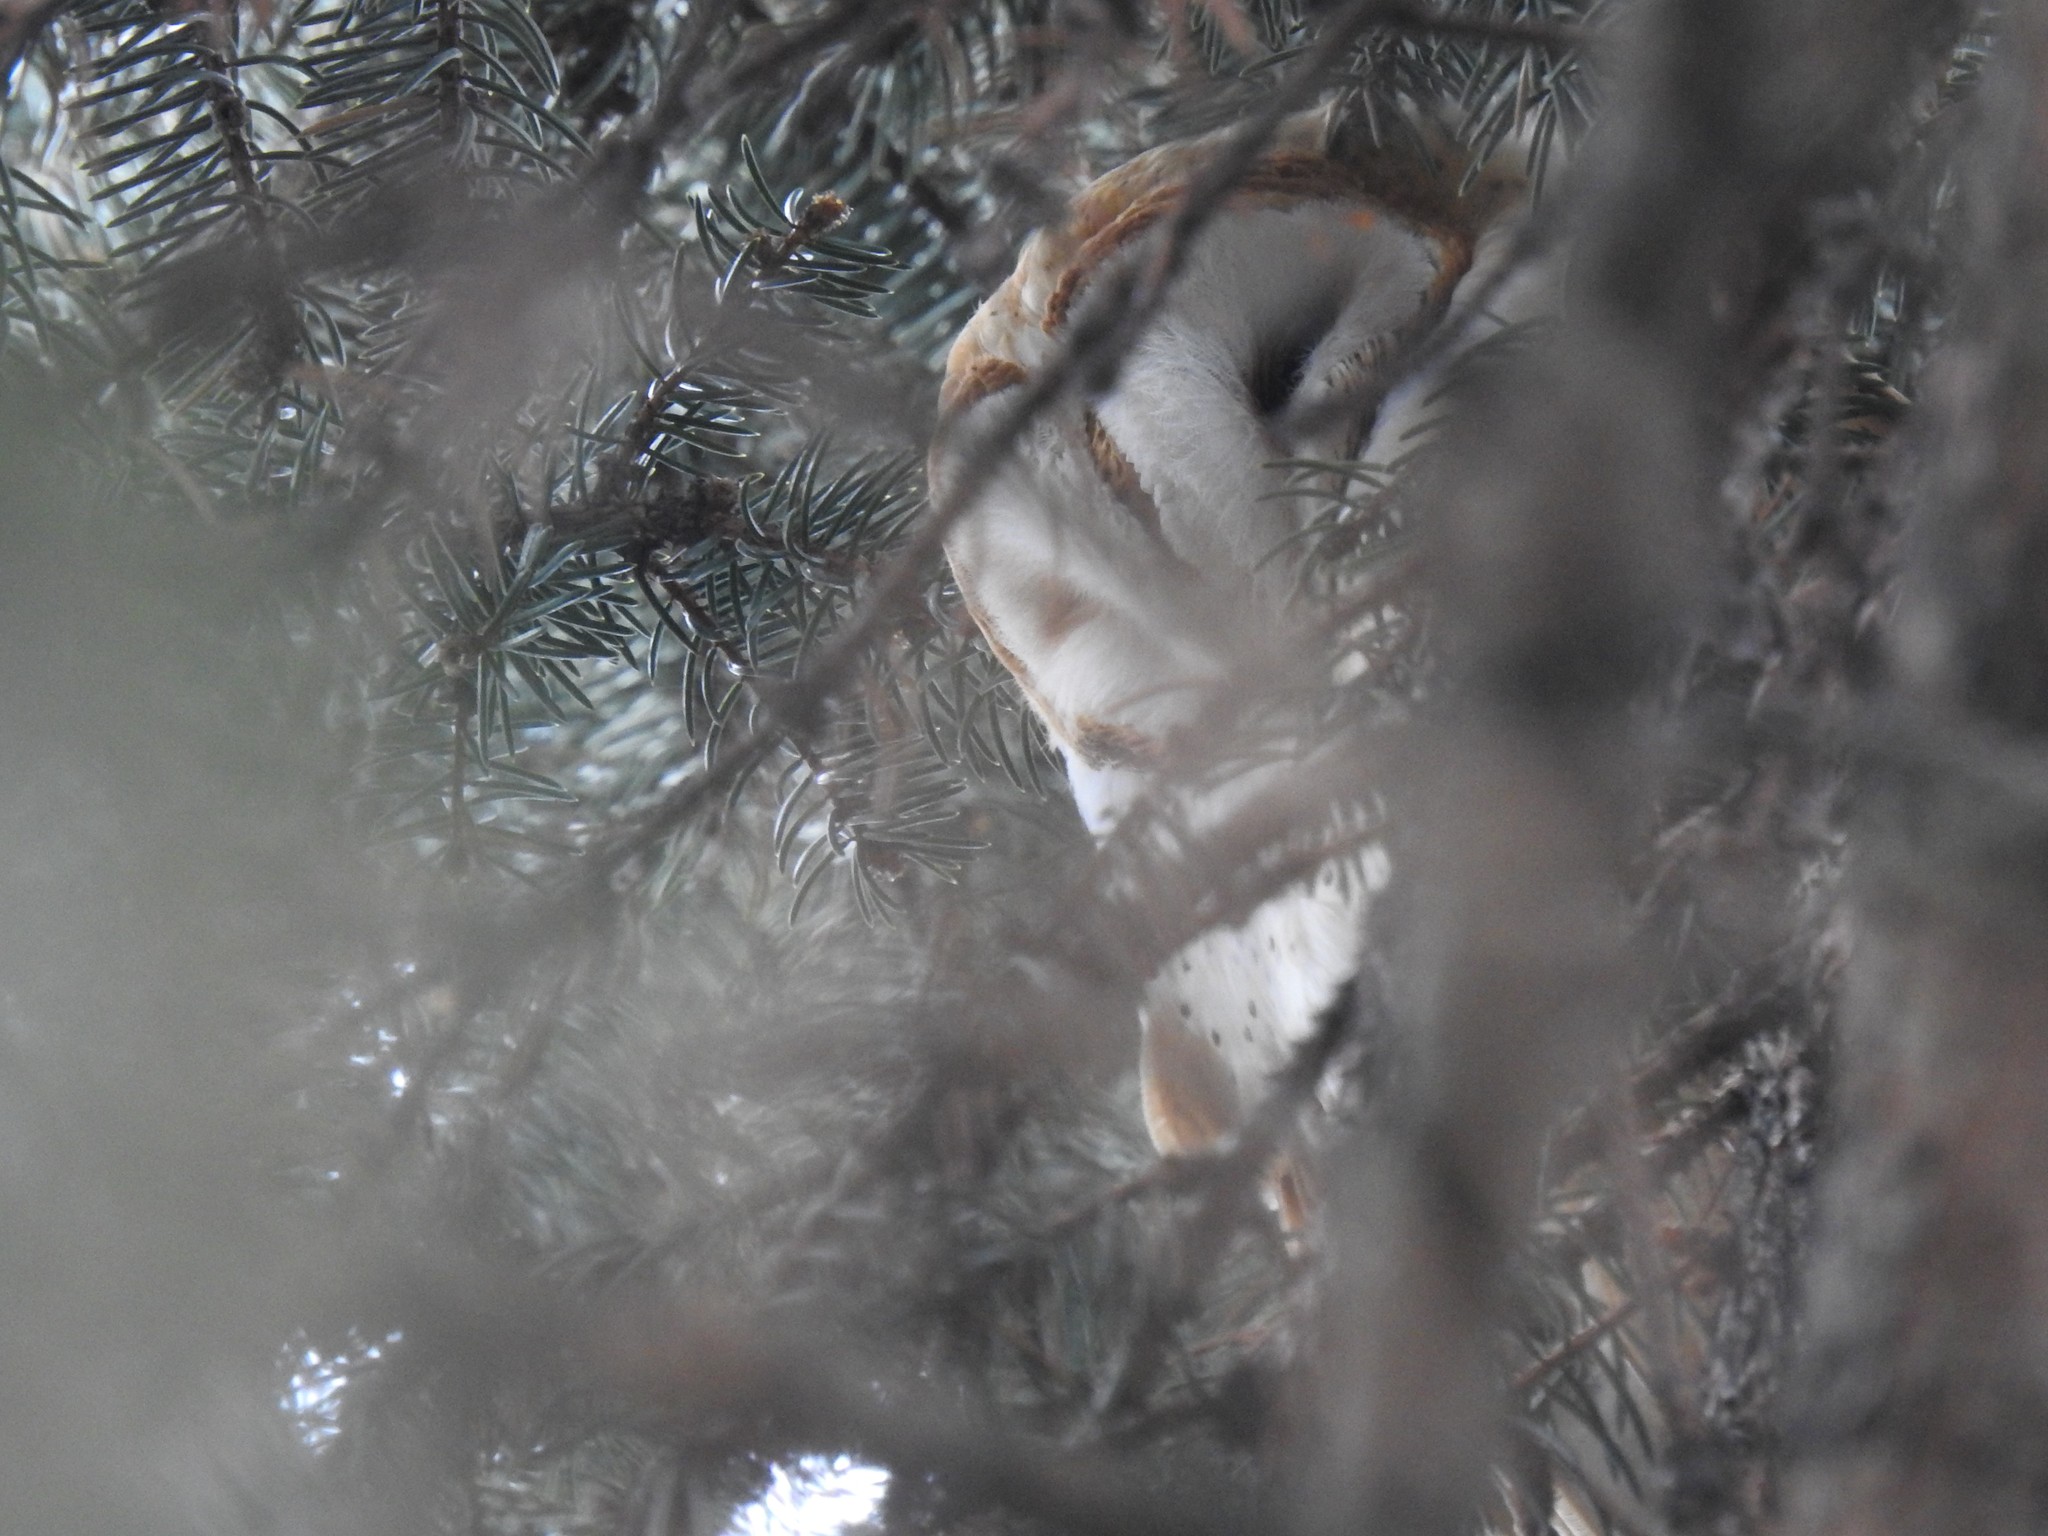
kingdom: Animalia
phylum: Chordata
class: Aves
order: Strigiformes
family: Tytonidae
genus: Tyto
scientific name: Tyto alba
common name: Barn owl
